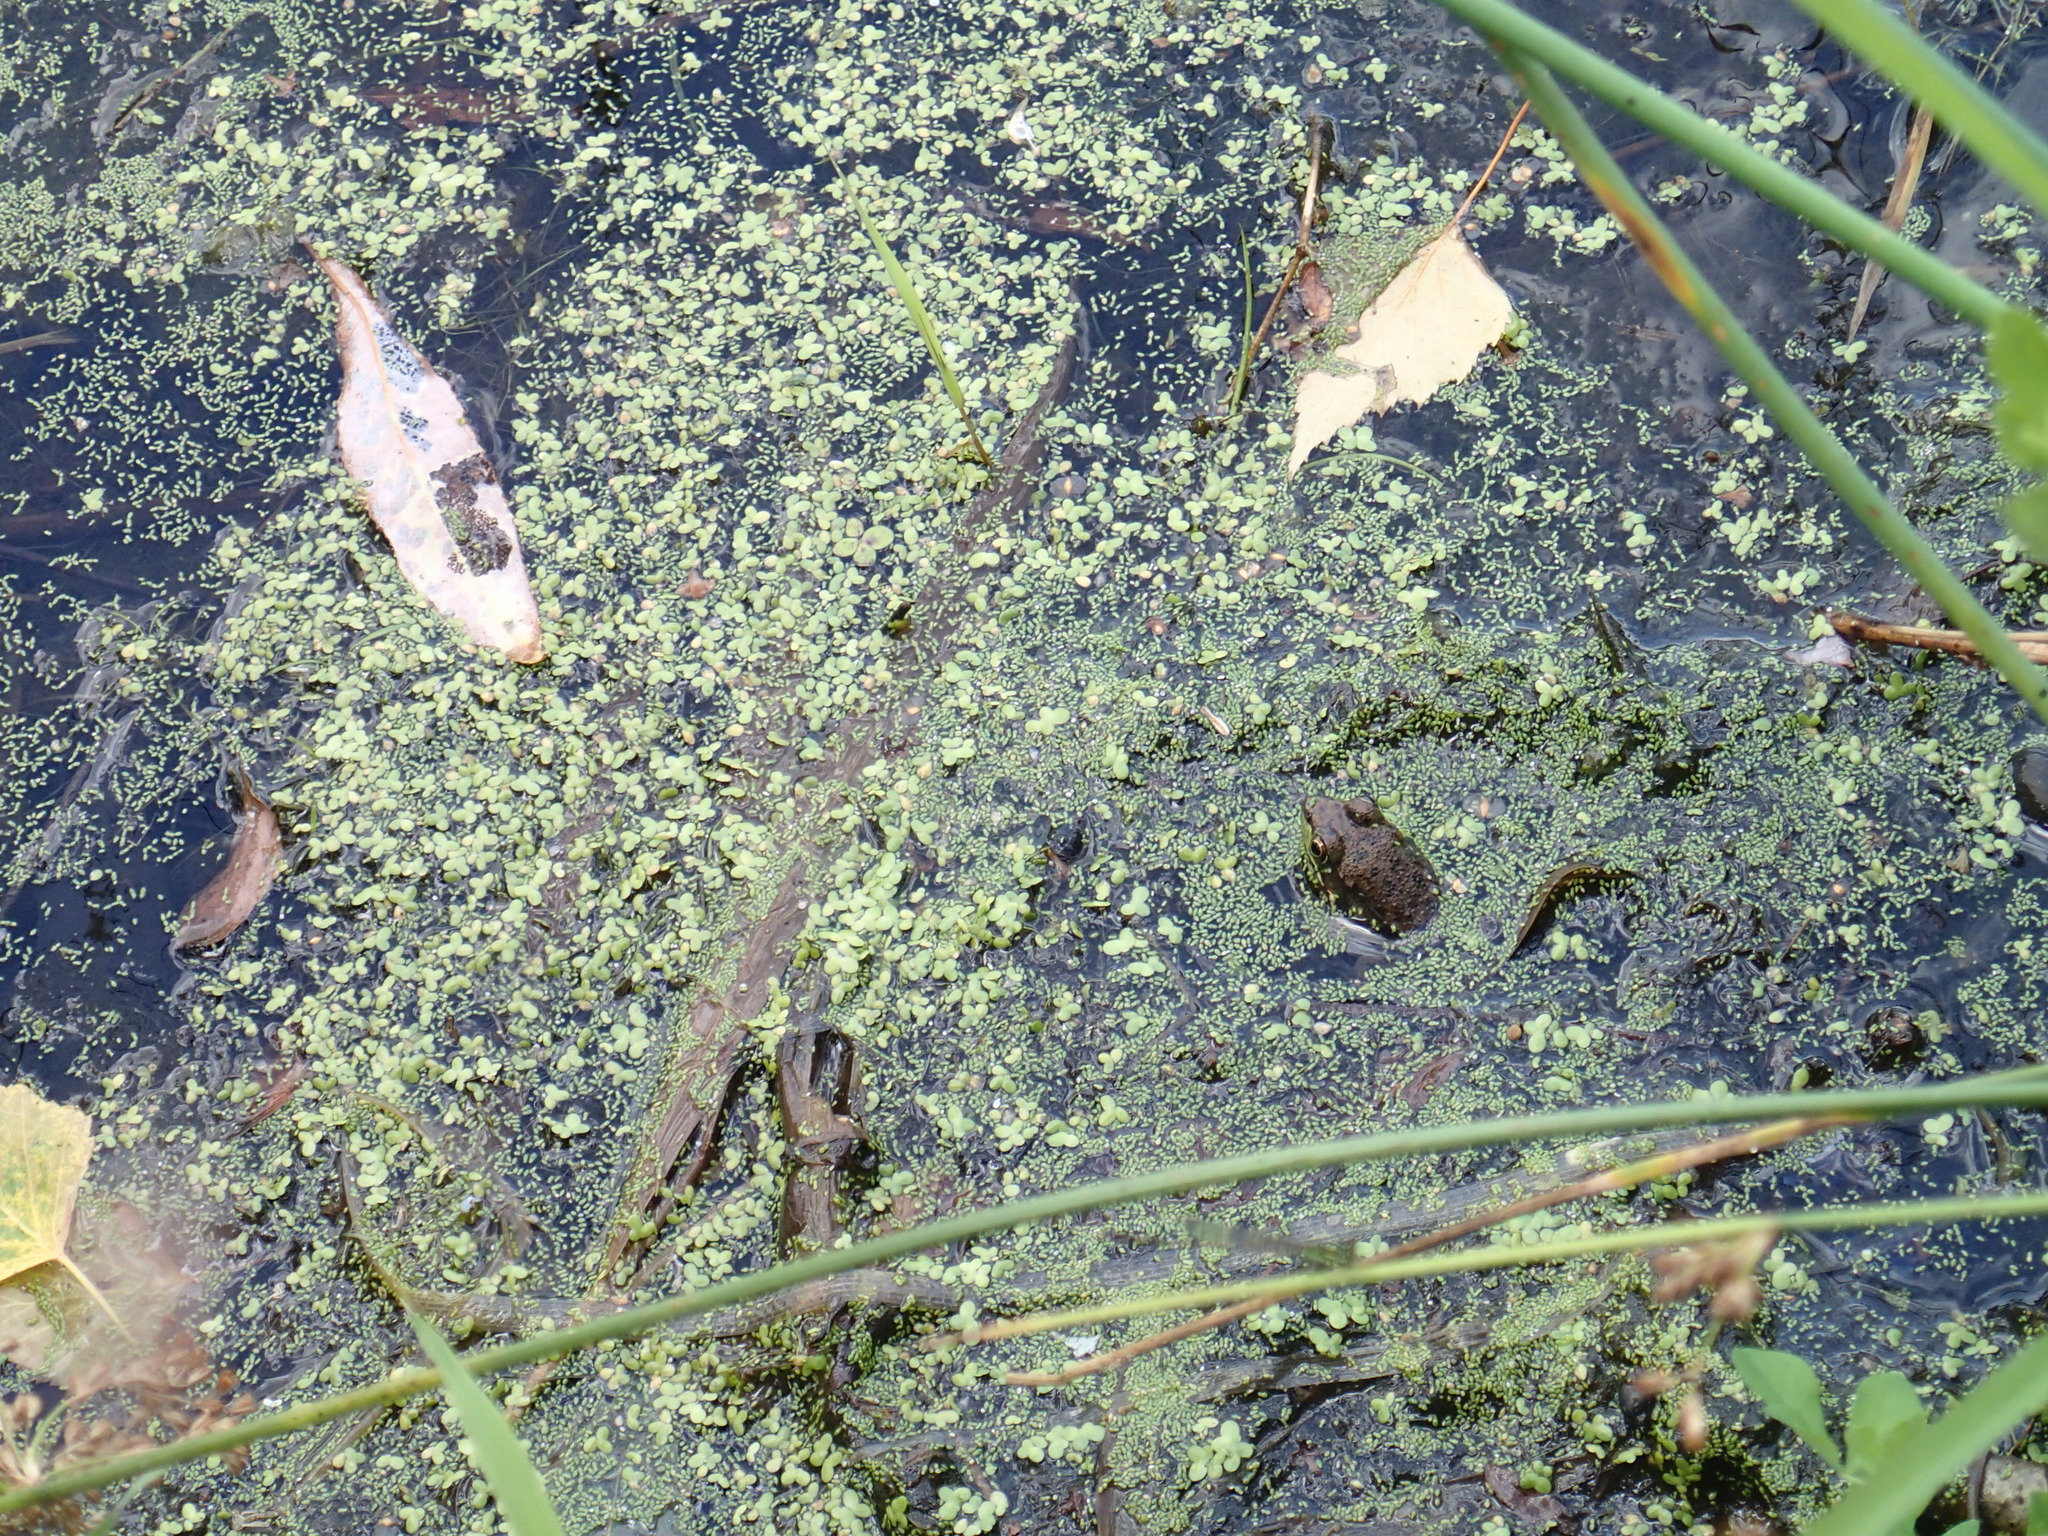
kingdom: Animalia
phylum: Chordata
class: Amphibia
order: Anura
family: Ranidae
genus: Lithobates
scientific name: Lithobates clamitans
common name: Green frog
